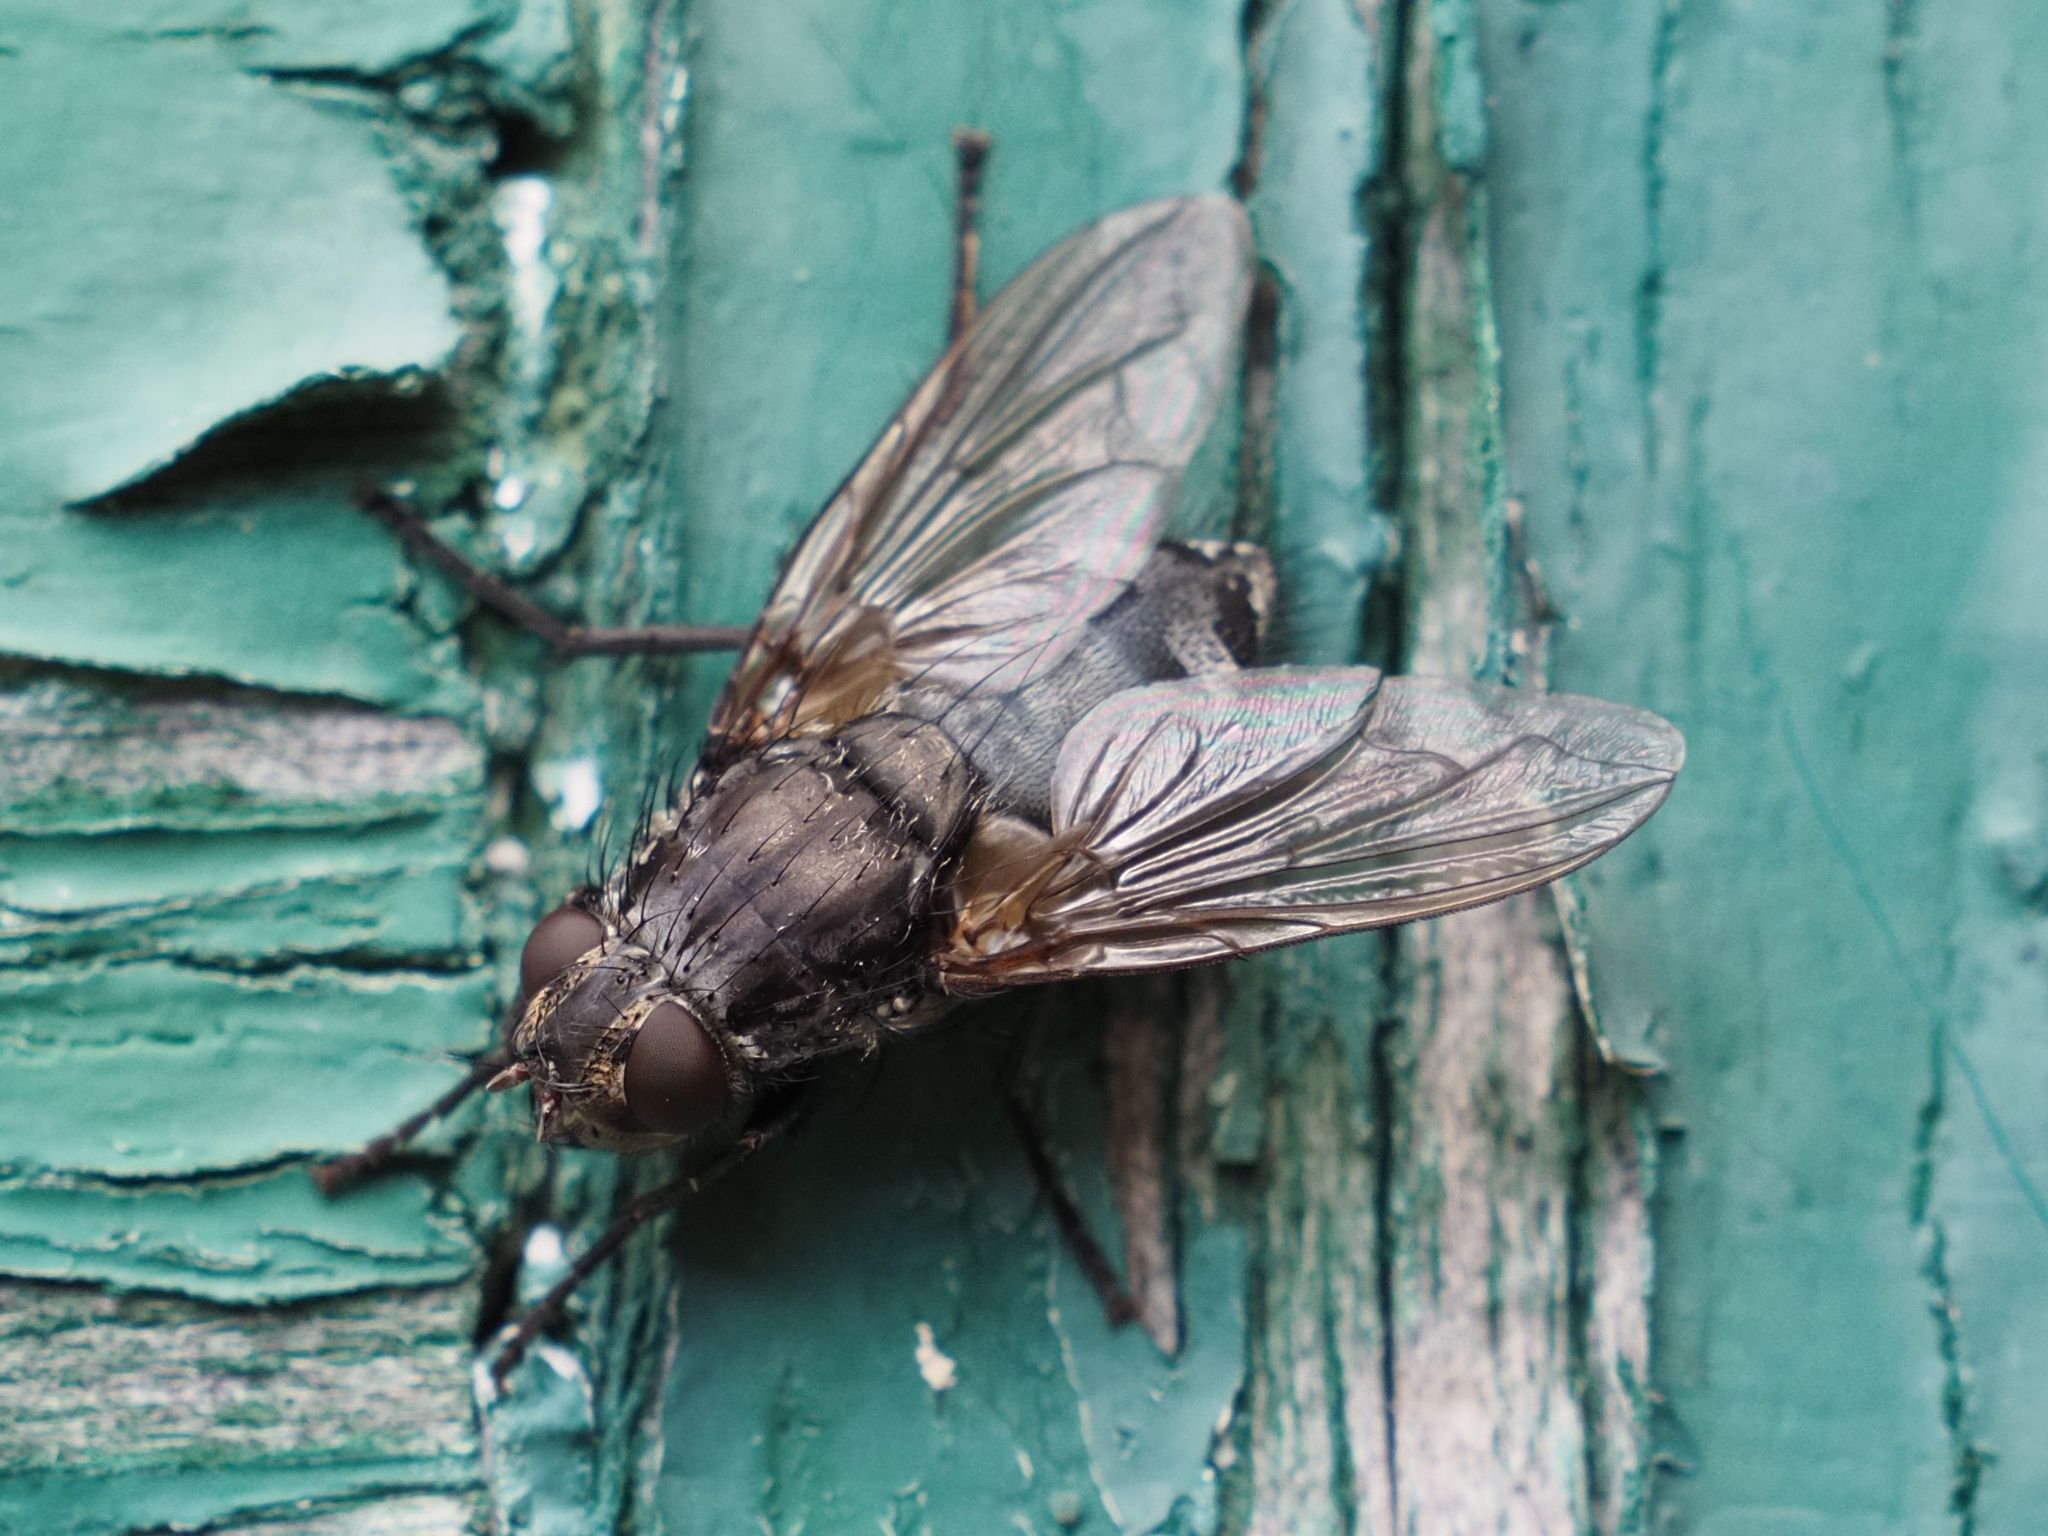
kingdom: Animalia
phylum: Arthropoda
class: Insecta
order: Diptera
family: Polleniidae
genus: Pollenia
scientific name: Pollenia vagabunda
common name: Vagabund cluster fly
